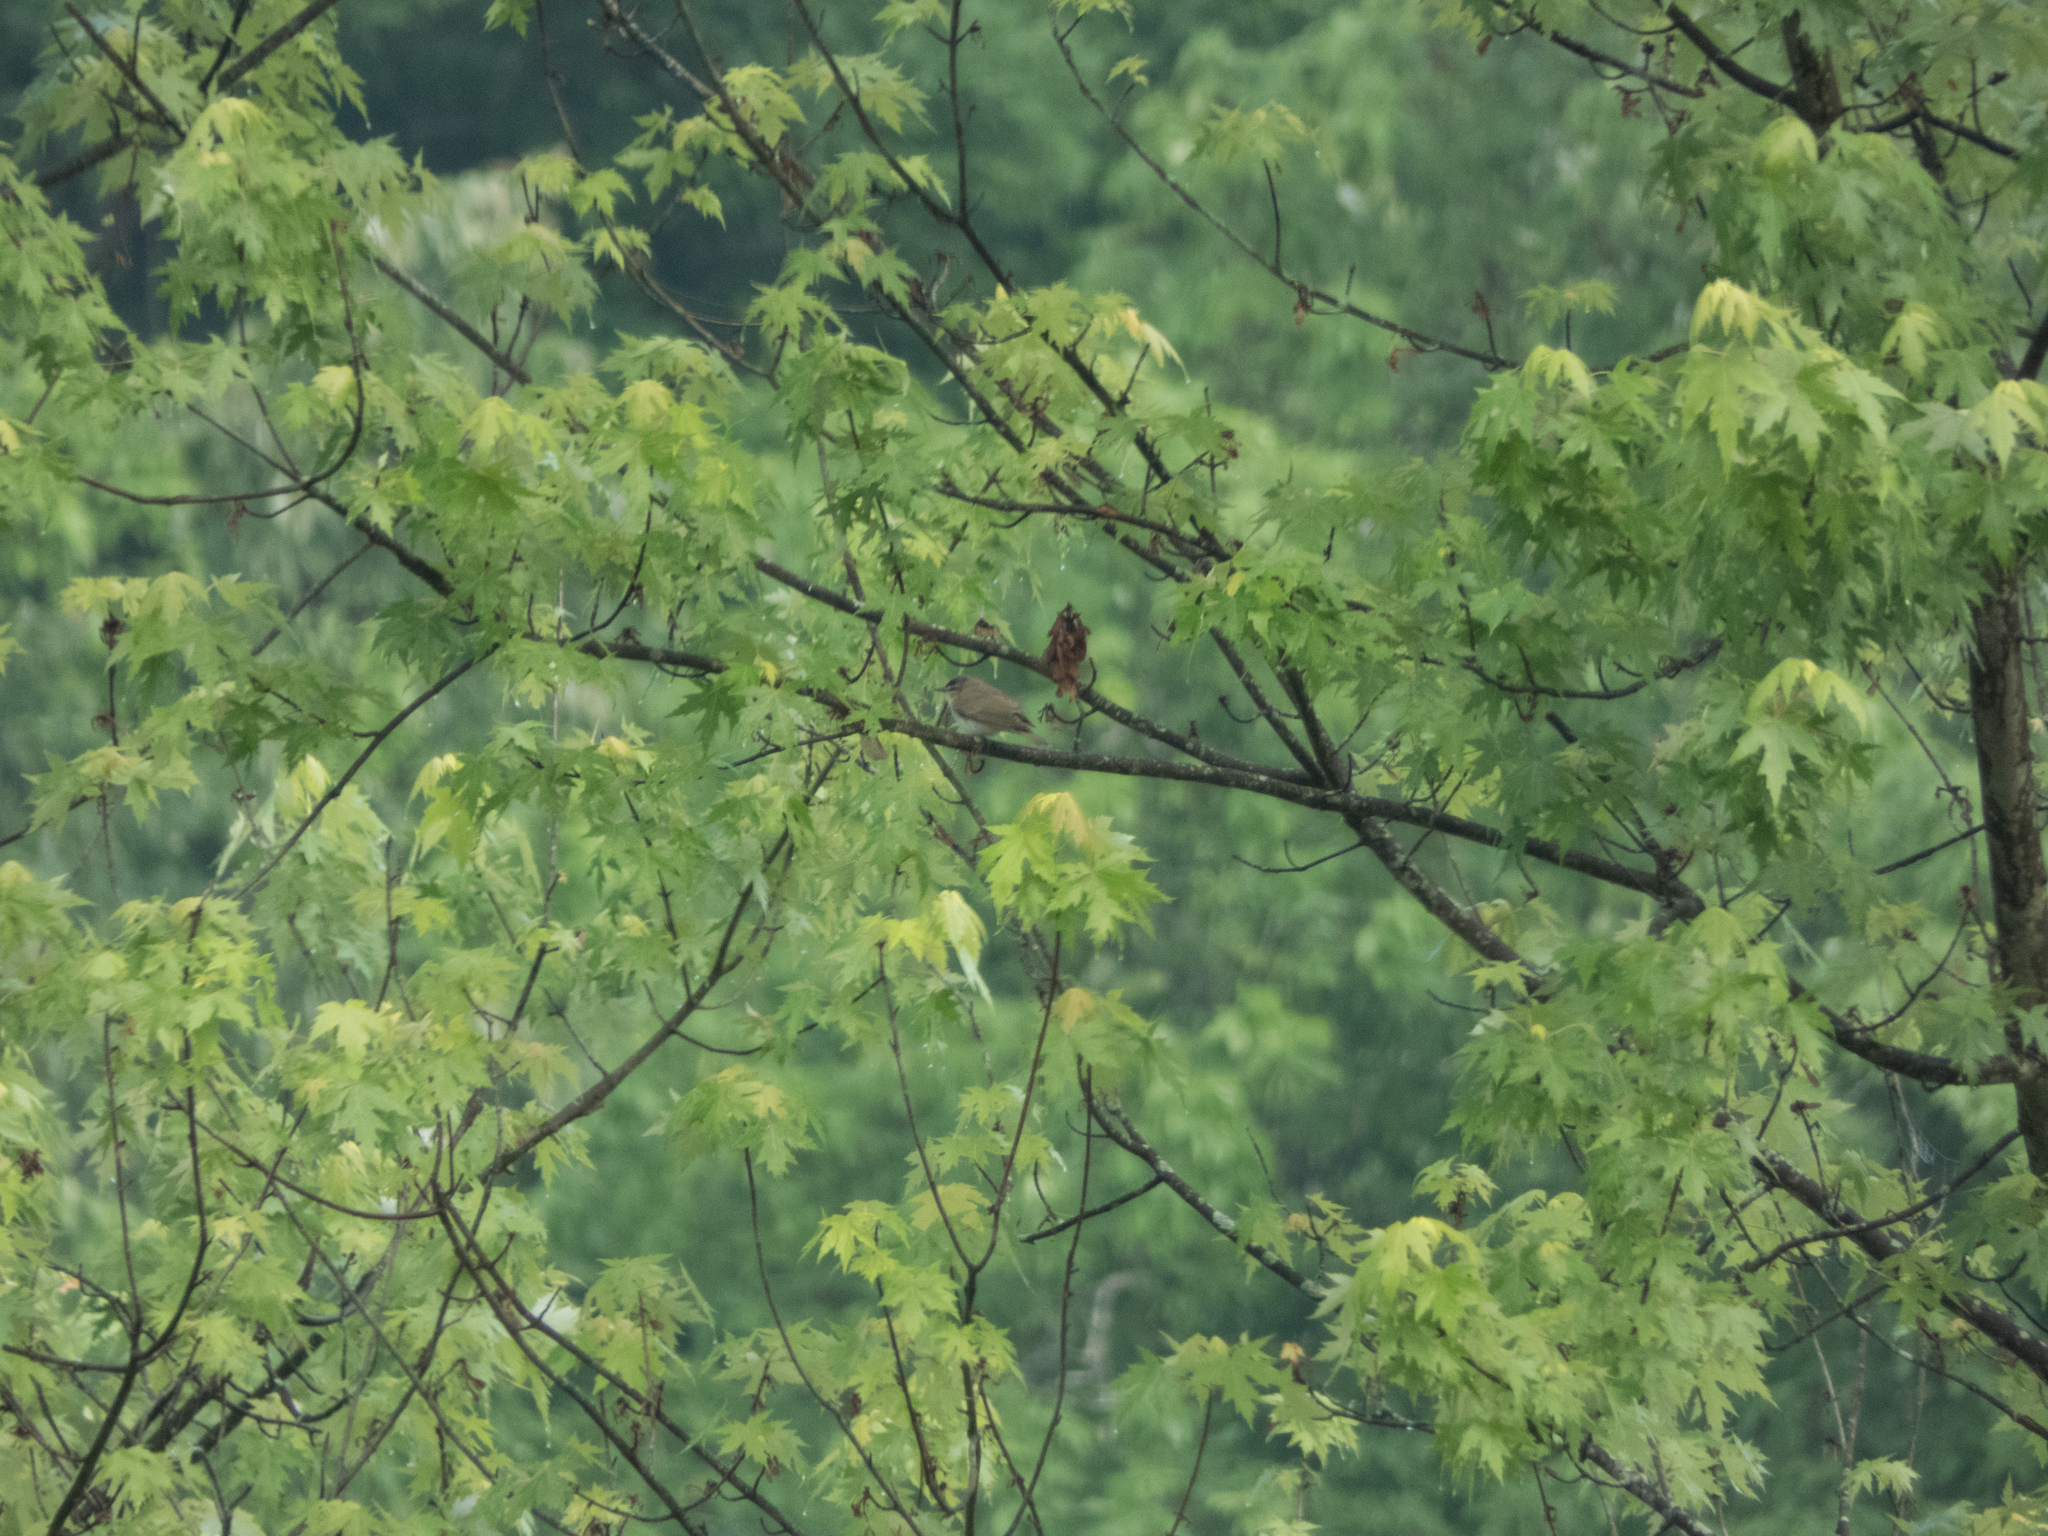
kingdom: Animalia
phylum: Chordata
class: Aves
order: Passeriformes
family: Vireonidae
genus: Vireo
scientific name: Vireo olivaceus
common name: Red-eyed vireo
